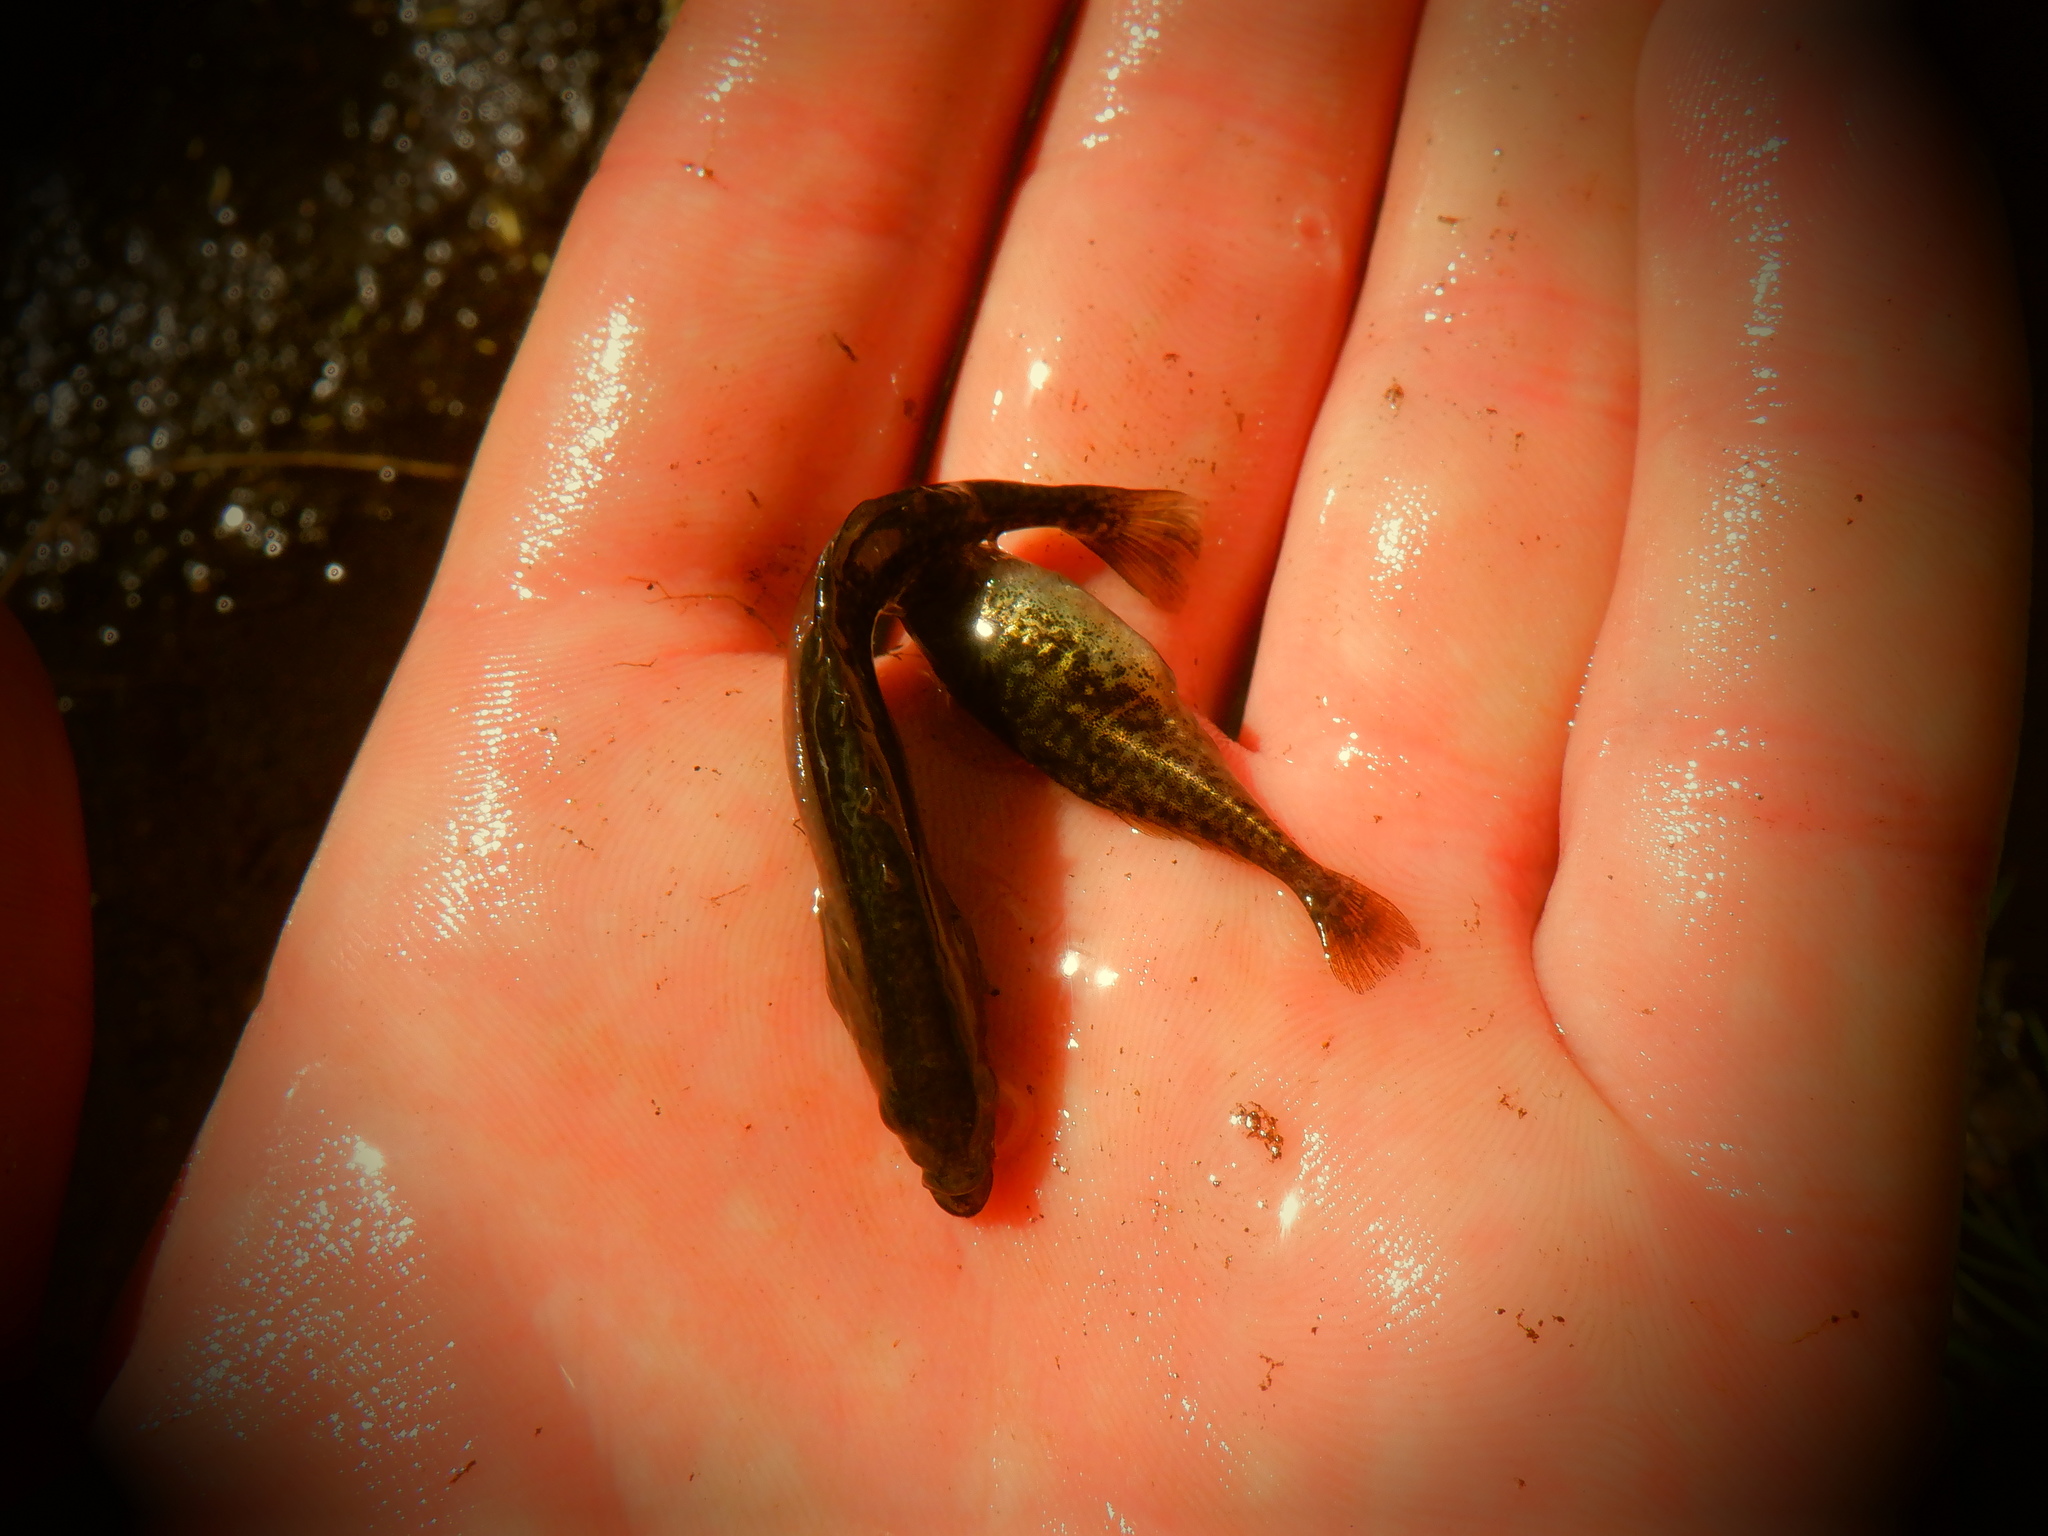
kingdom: Animalia
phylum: Chordata
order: Gasterosteiformes
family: Gasterosteidae
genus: Culaea
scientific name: Culaea inconstans
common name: Brook stickleback
